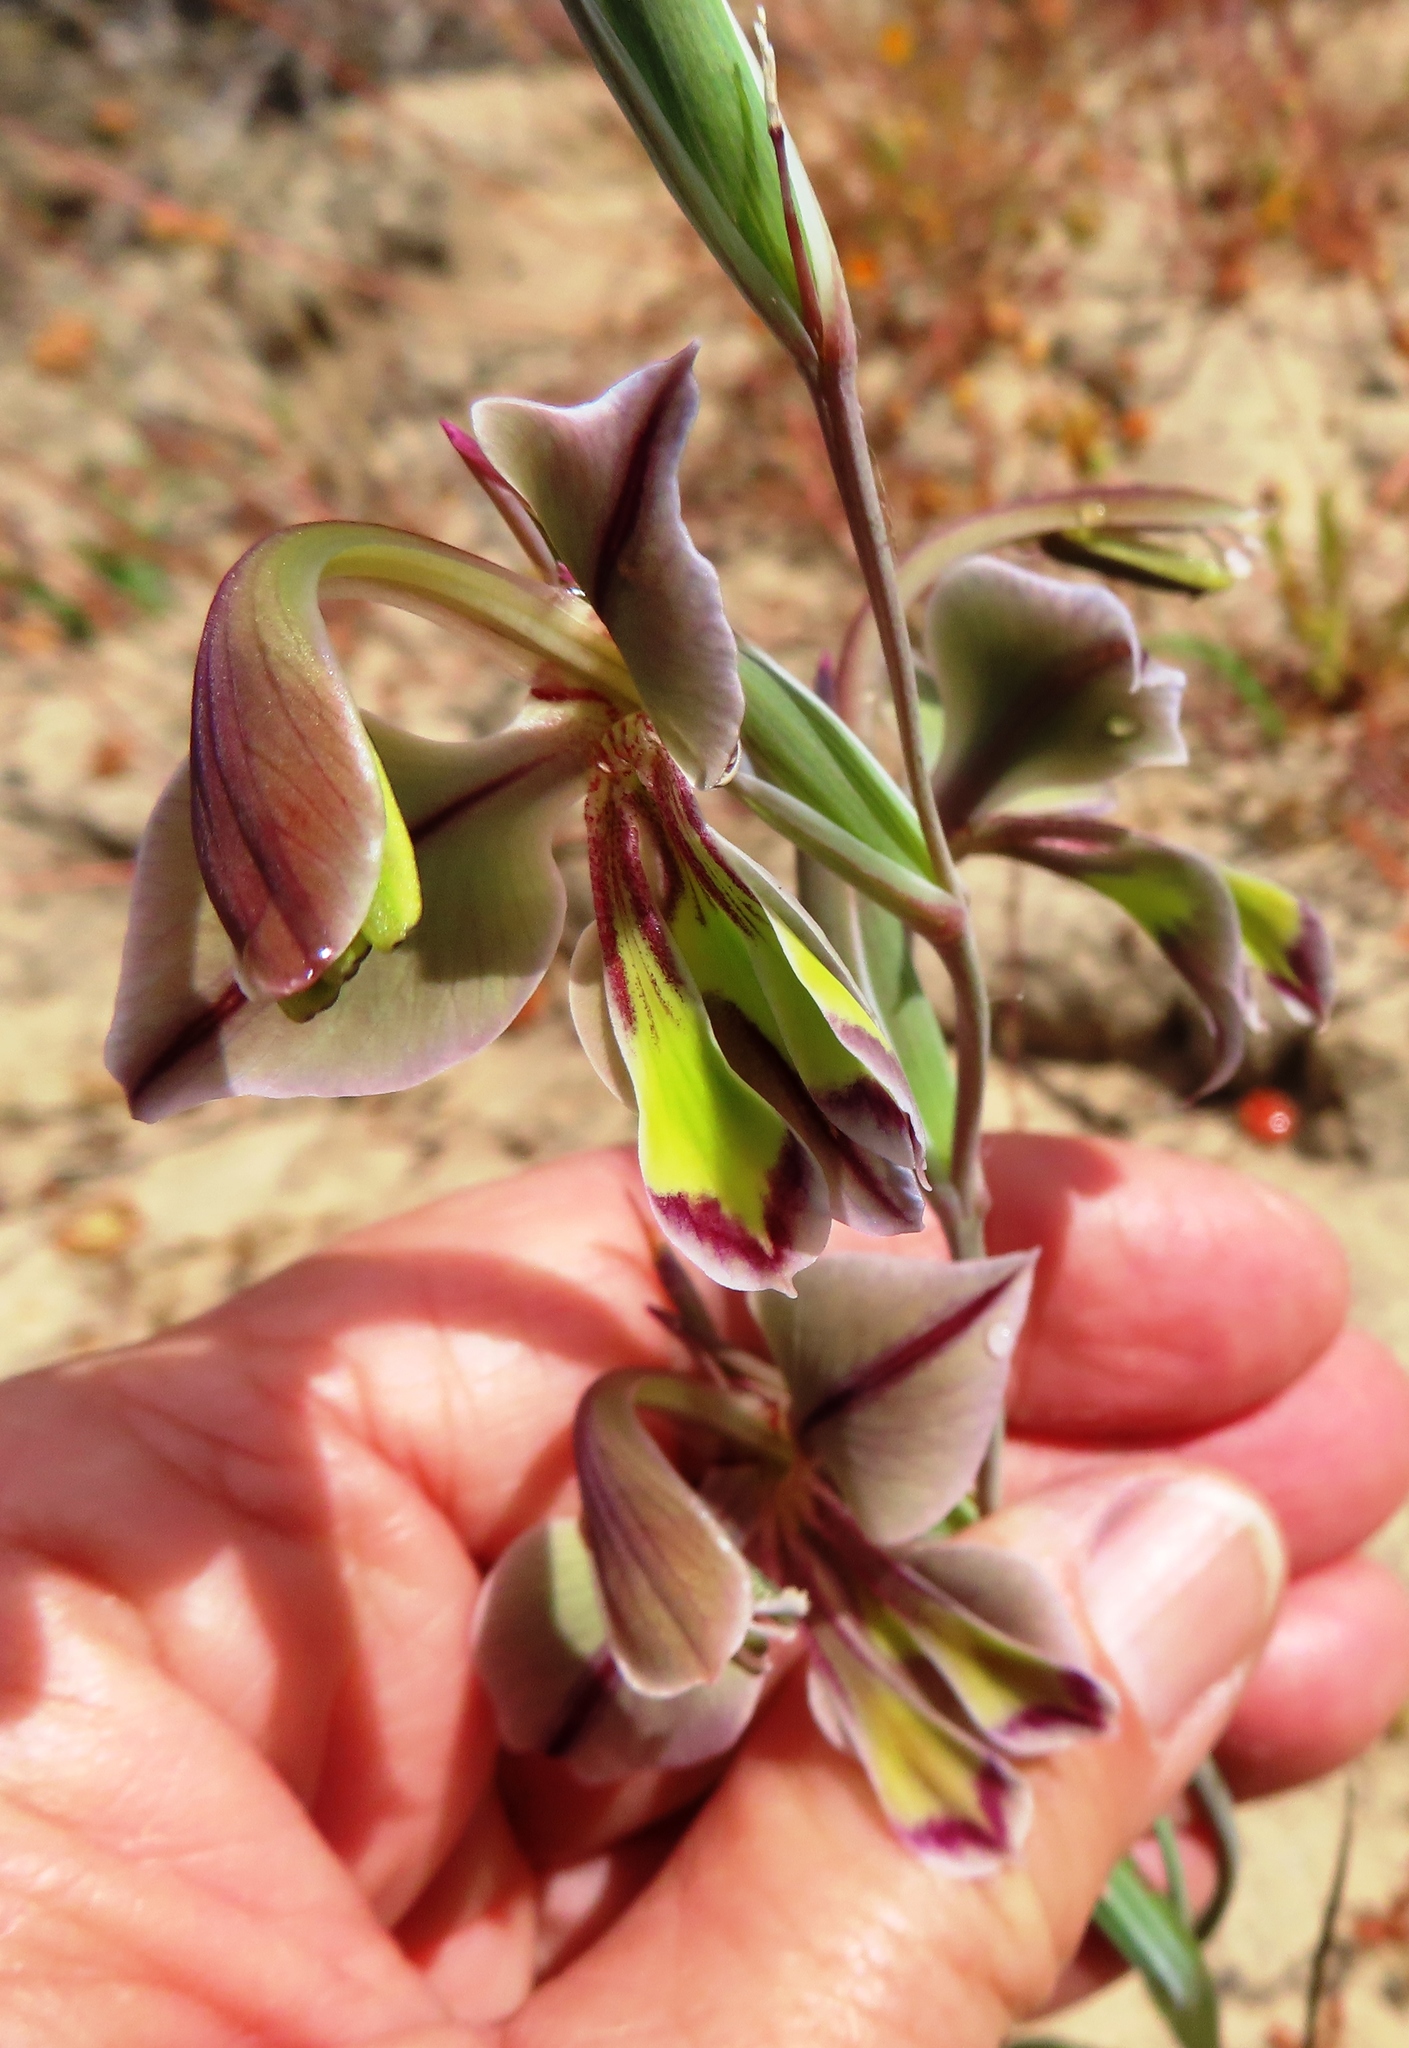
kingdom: Plantae
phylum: Tracheophyta
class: Liliopsida
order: Asparagales
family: Iridaceae
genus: Gladiolus
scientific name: Gladiolus orchidiflorus
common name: Gray kalkoentjie
